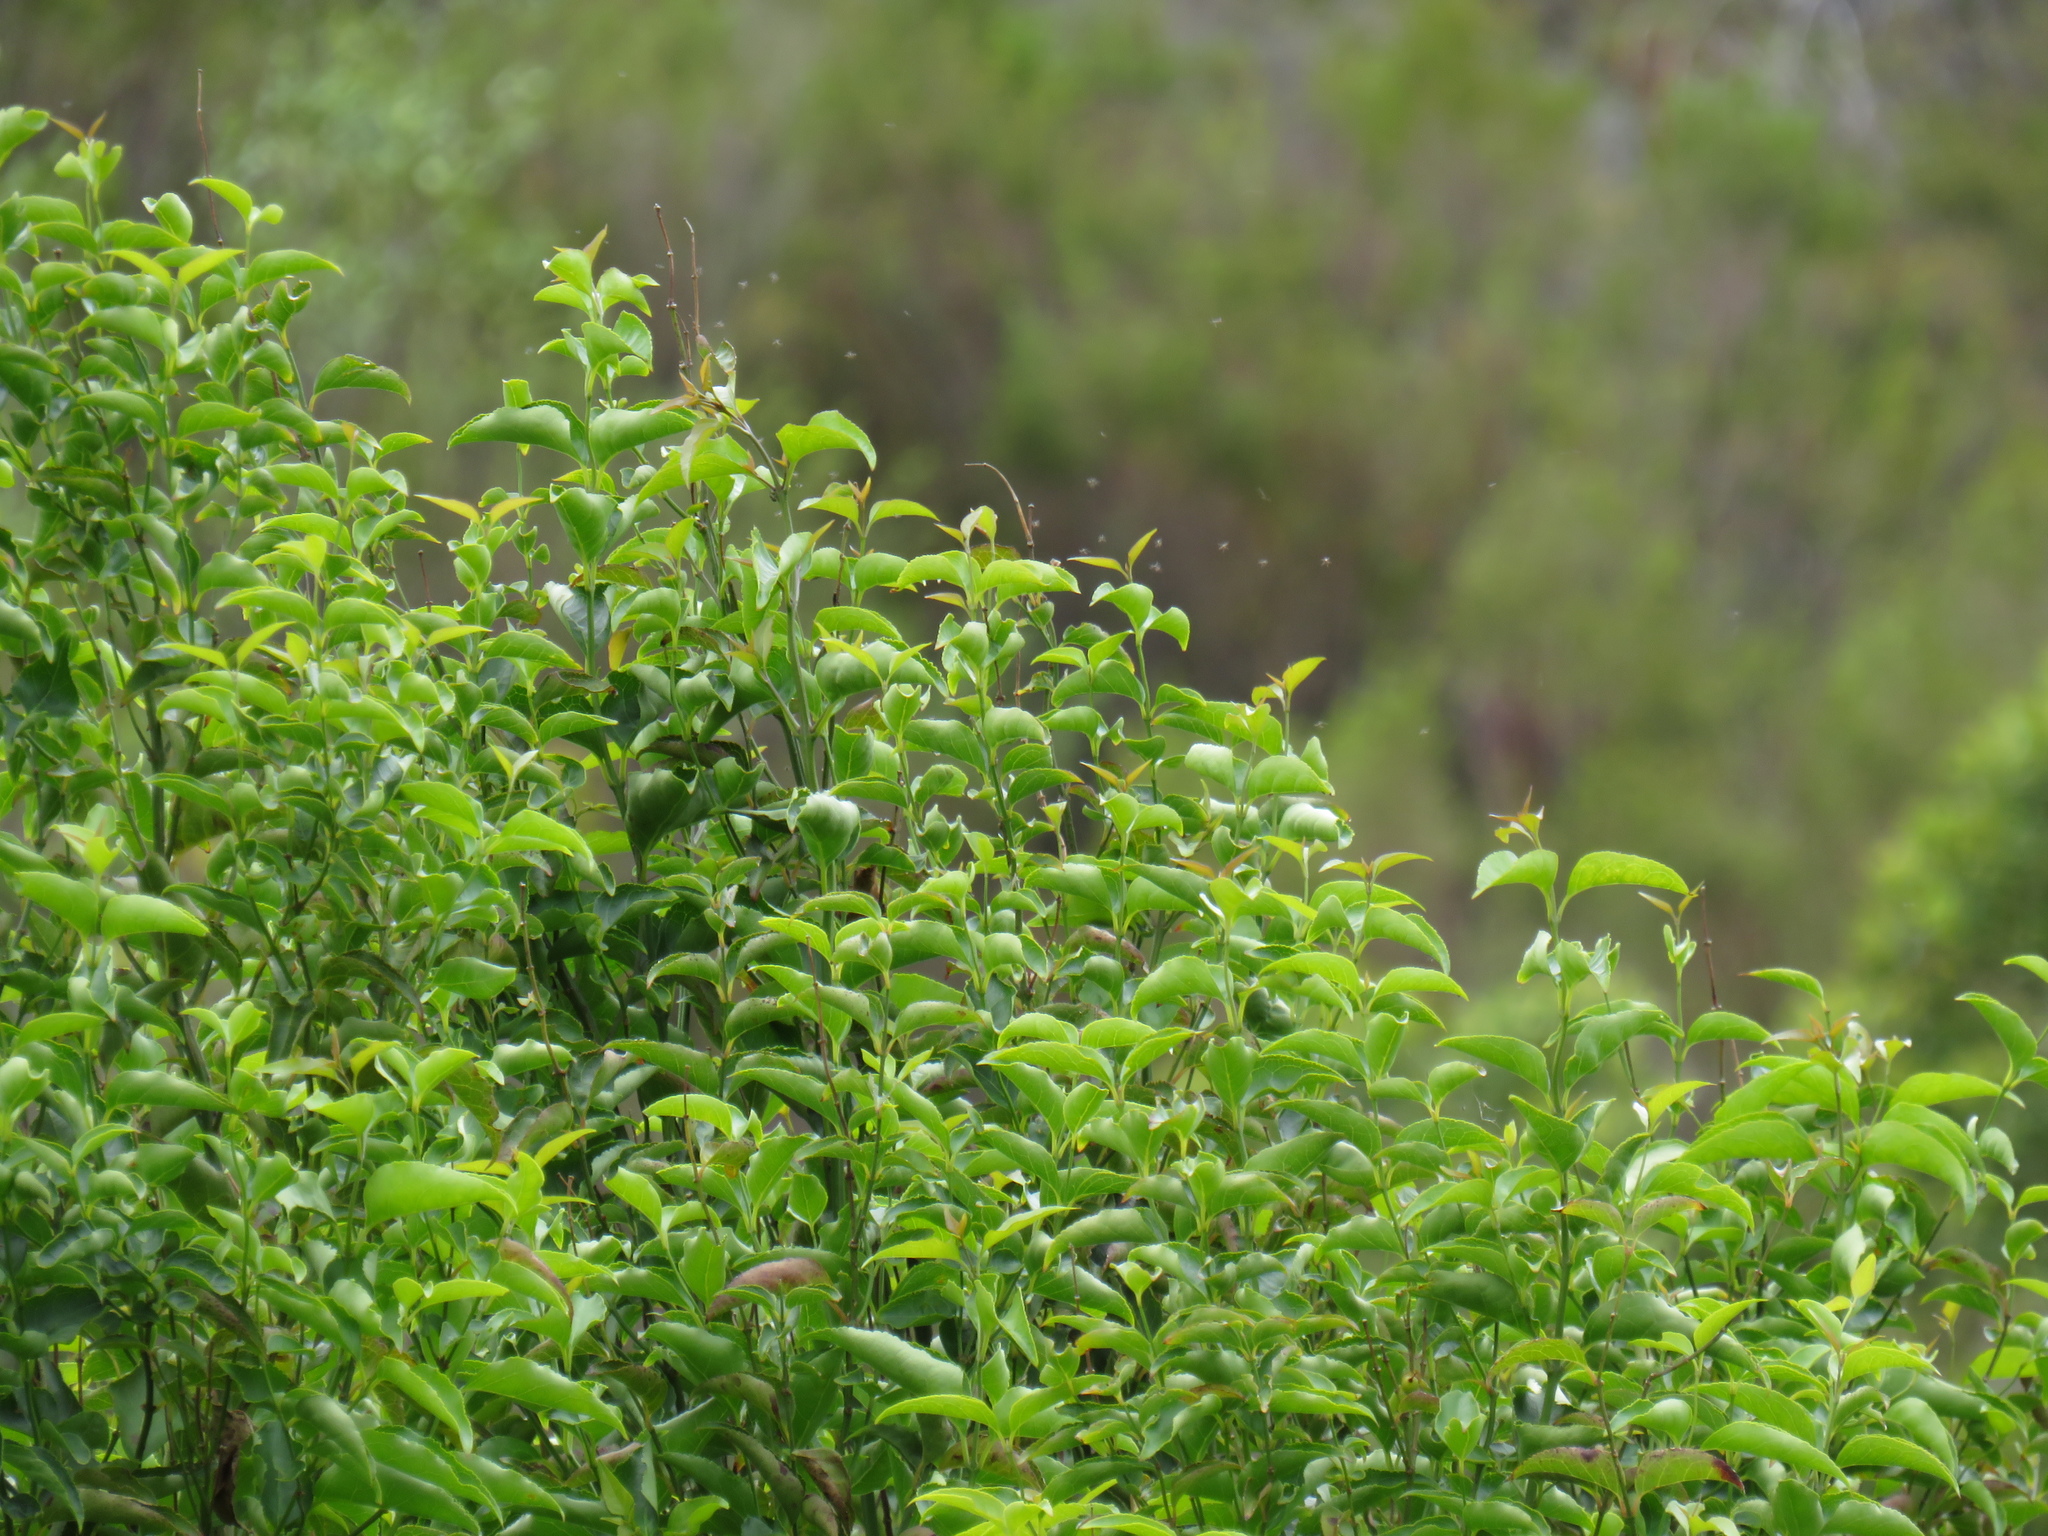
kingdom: Plantae
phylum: Tracheophyta
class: Magnoliopsida
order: Lamiales
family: Stilbaceae
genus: Halleria
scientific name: Halleria lucida
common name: Tree fuschia
